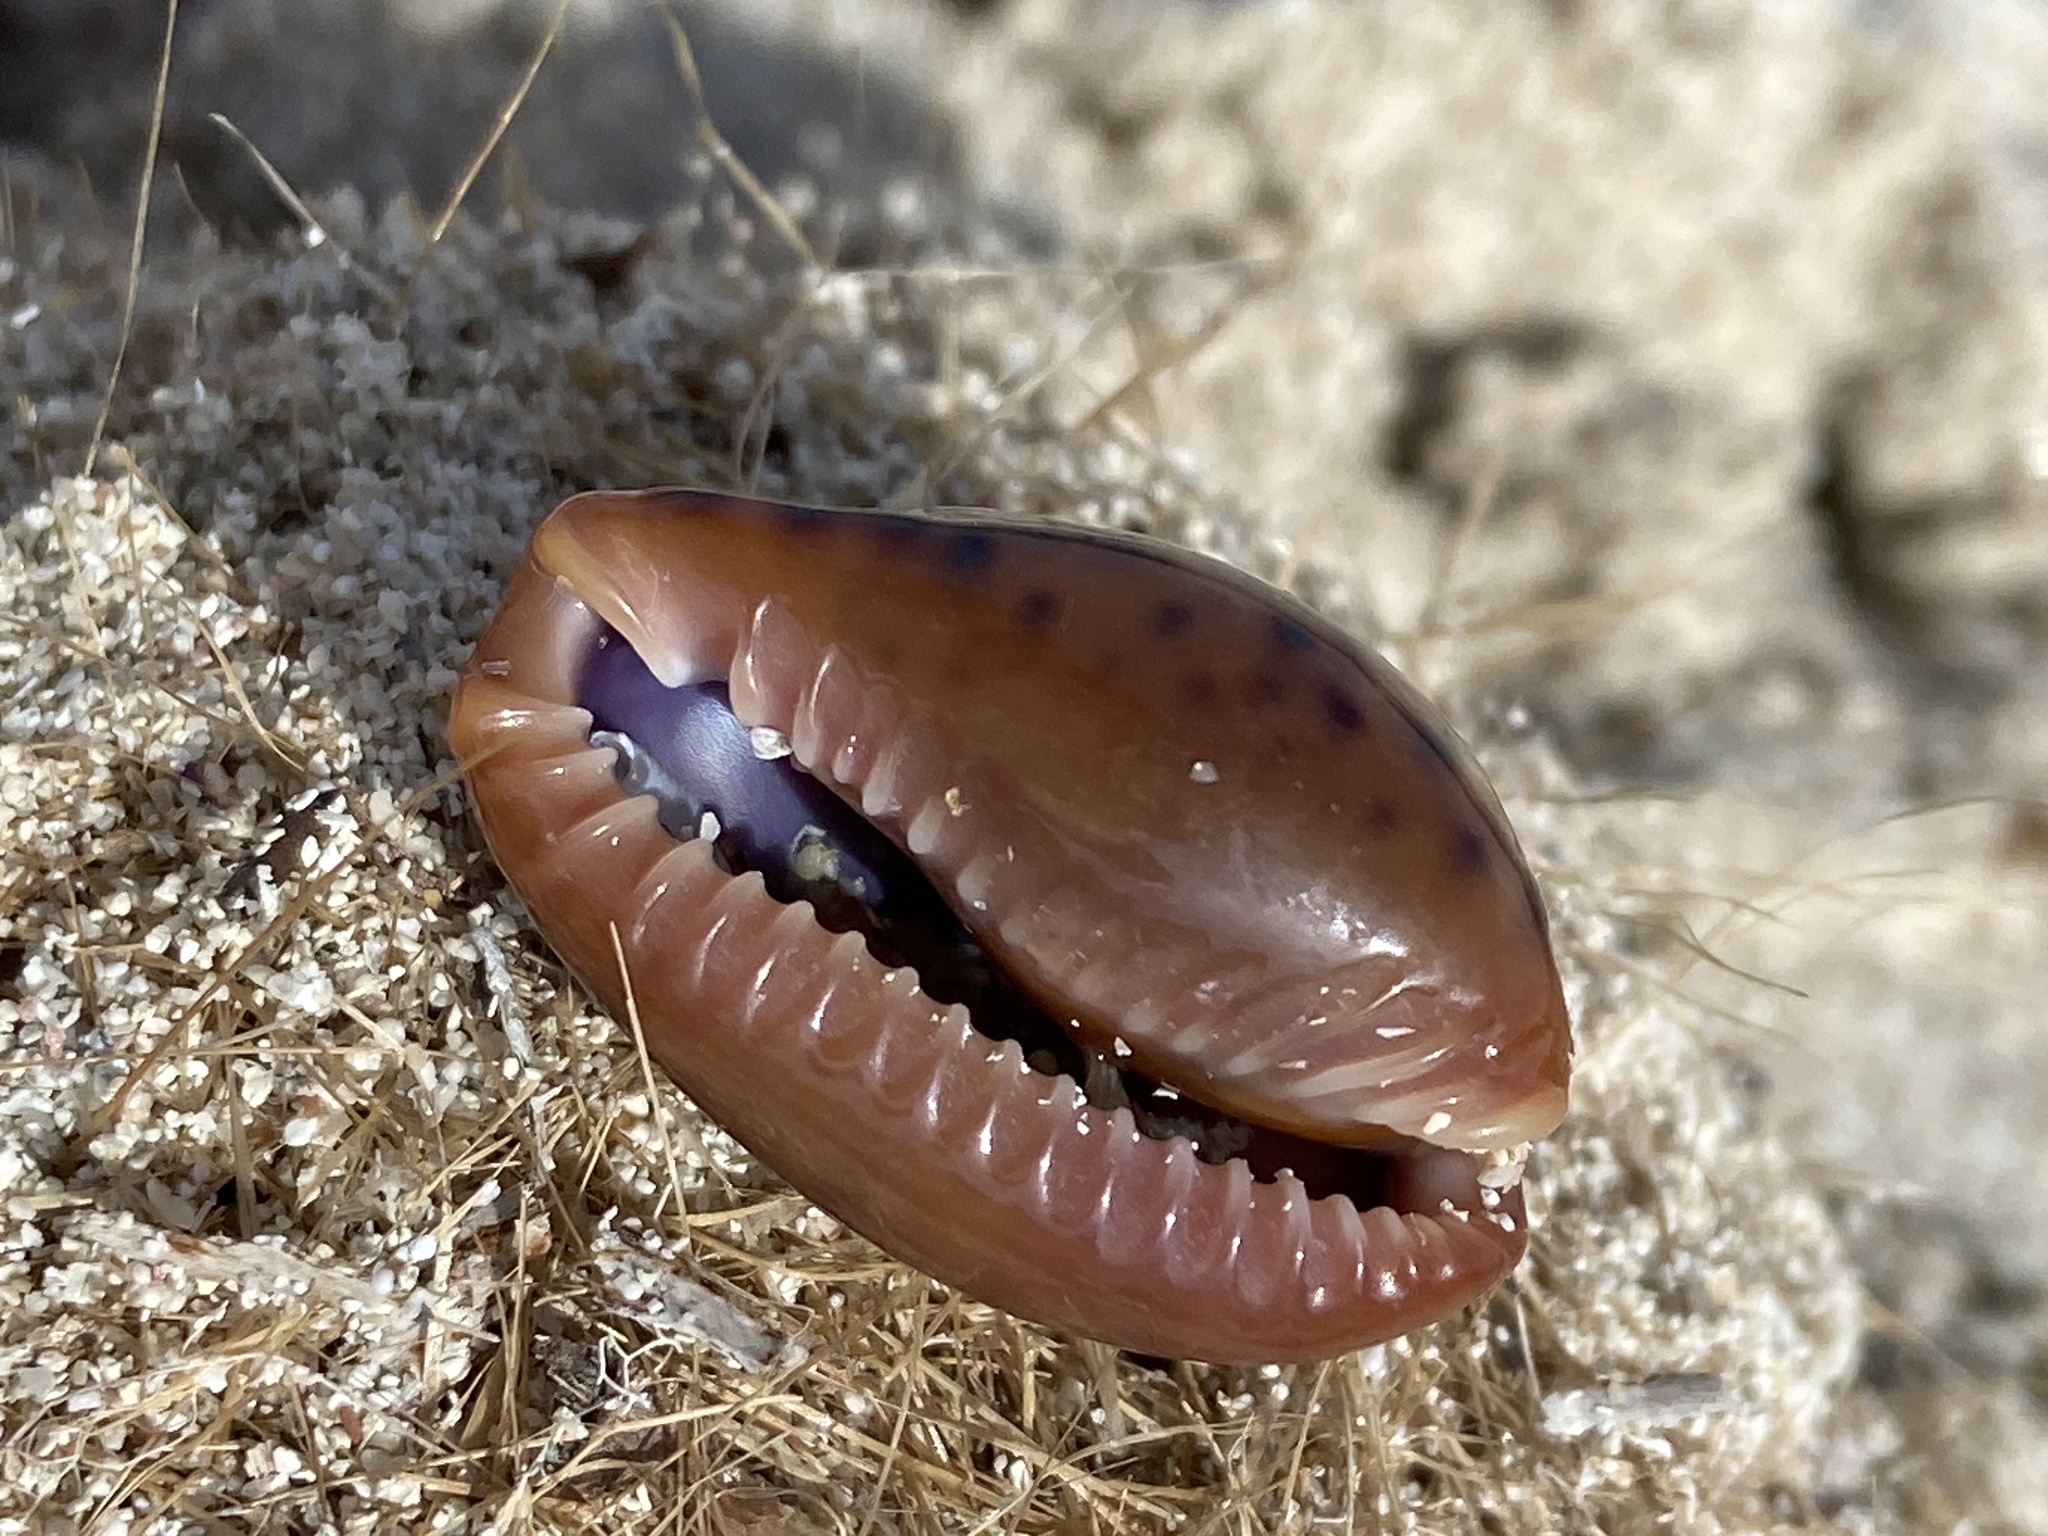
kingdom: Animalia
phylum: Mollusca
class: Gastropoda
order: Littorinimorpha
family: Cypraeidae
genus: Naria
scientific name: Naria spurca
